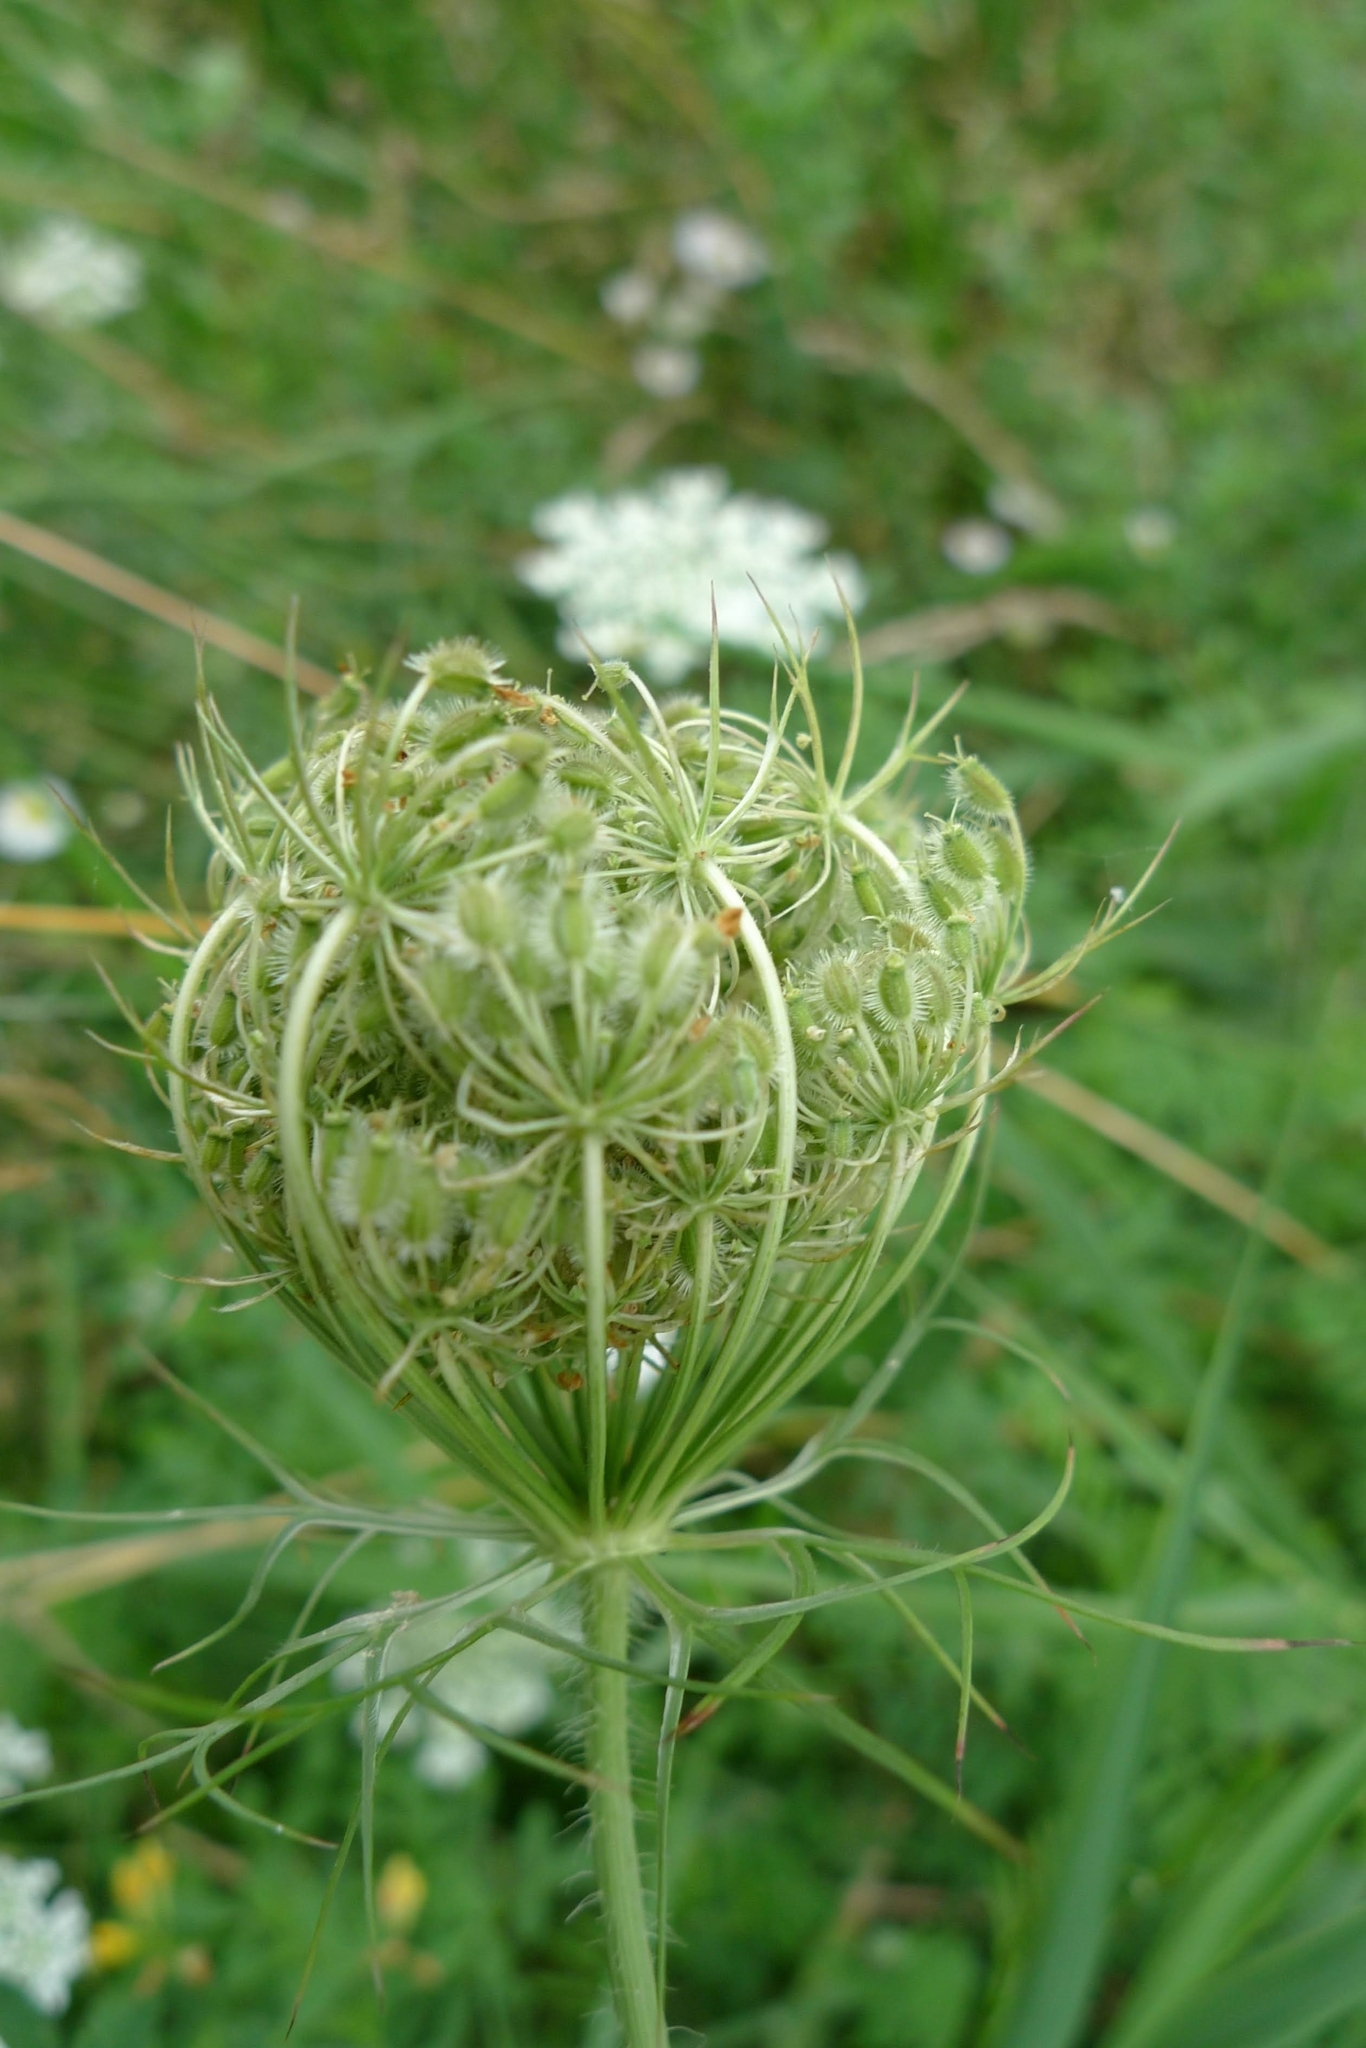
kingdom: Plantae
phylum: Tracheophyta
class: Magnoliopsida
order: Apiales
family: Apiaceae
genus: Daucus
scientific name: Daucus carota
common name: Wild carrot
